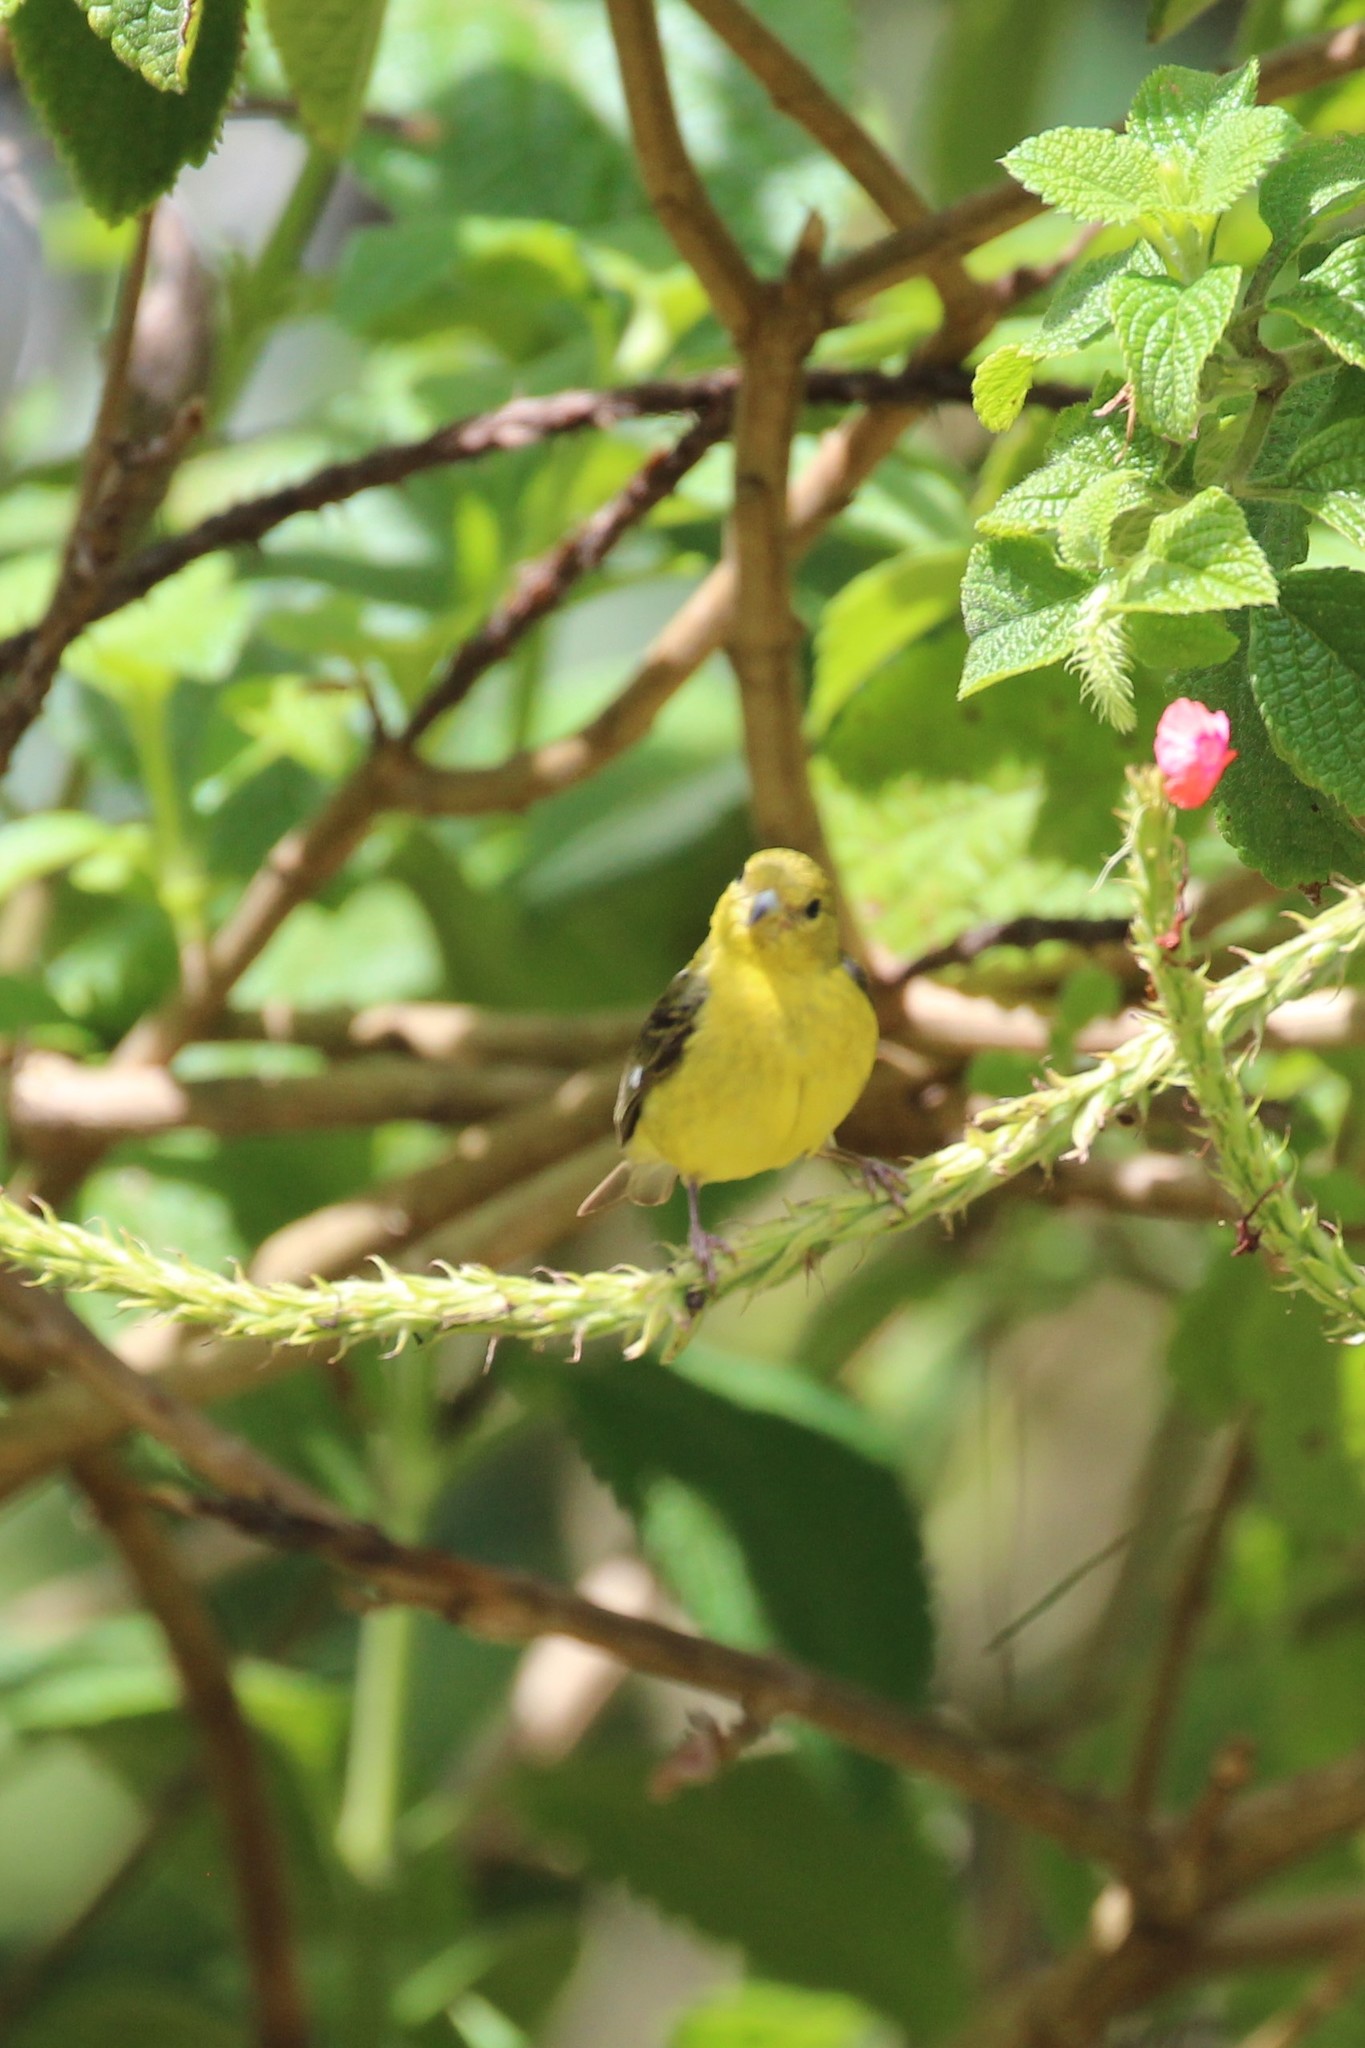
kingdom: Animalia
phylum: Chordata
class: Aves
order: Passeriformes
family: Fringillidae
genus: Spinus
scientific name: Spinus psaltria
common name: Lesser goldfinch
